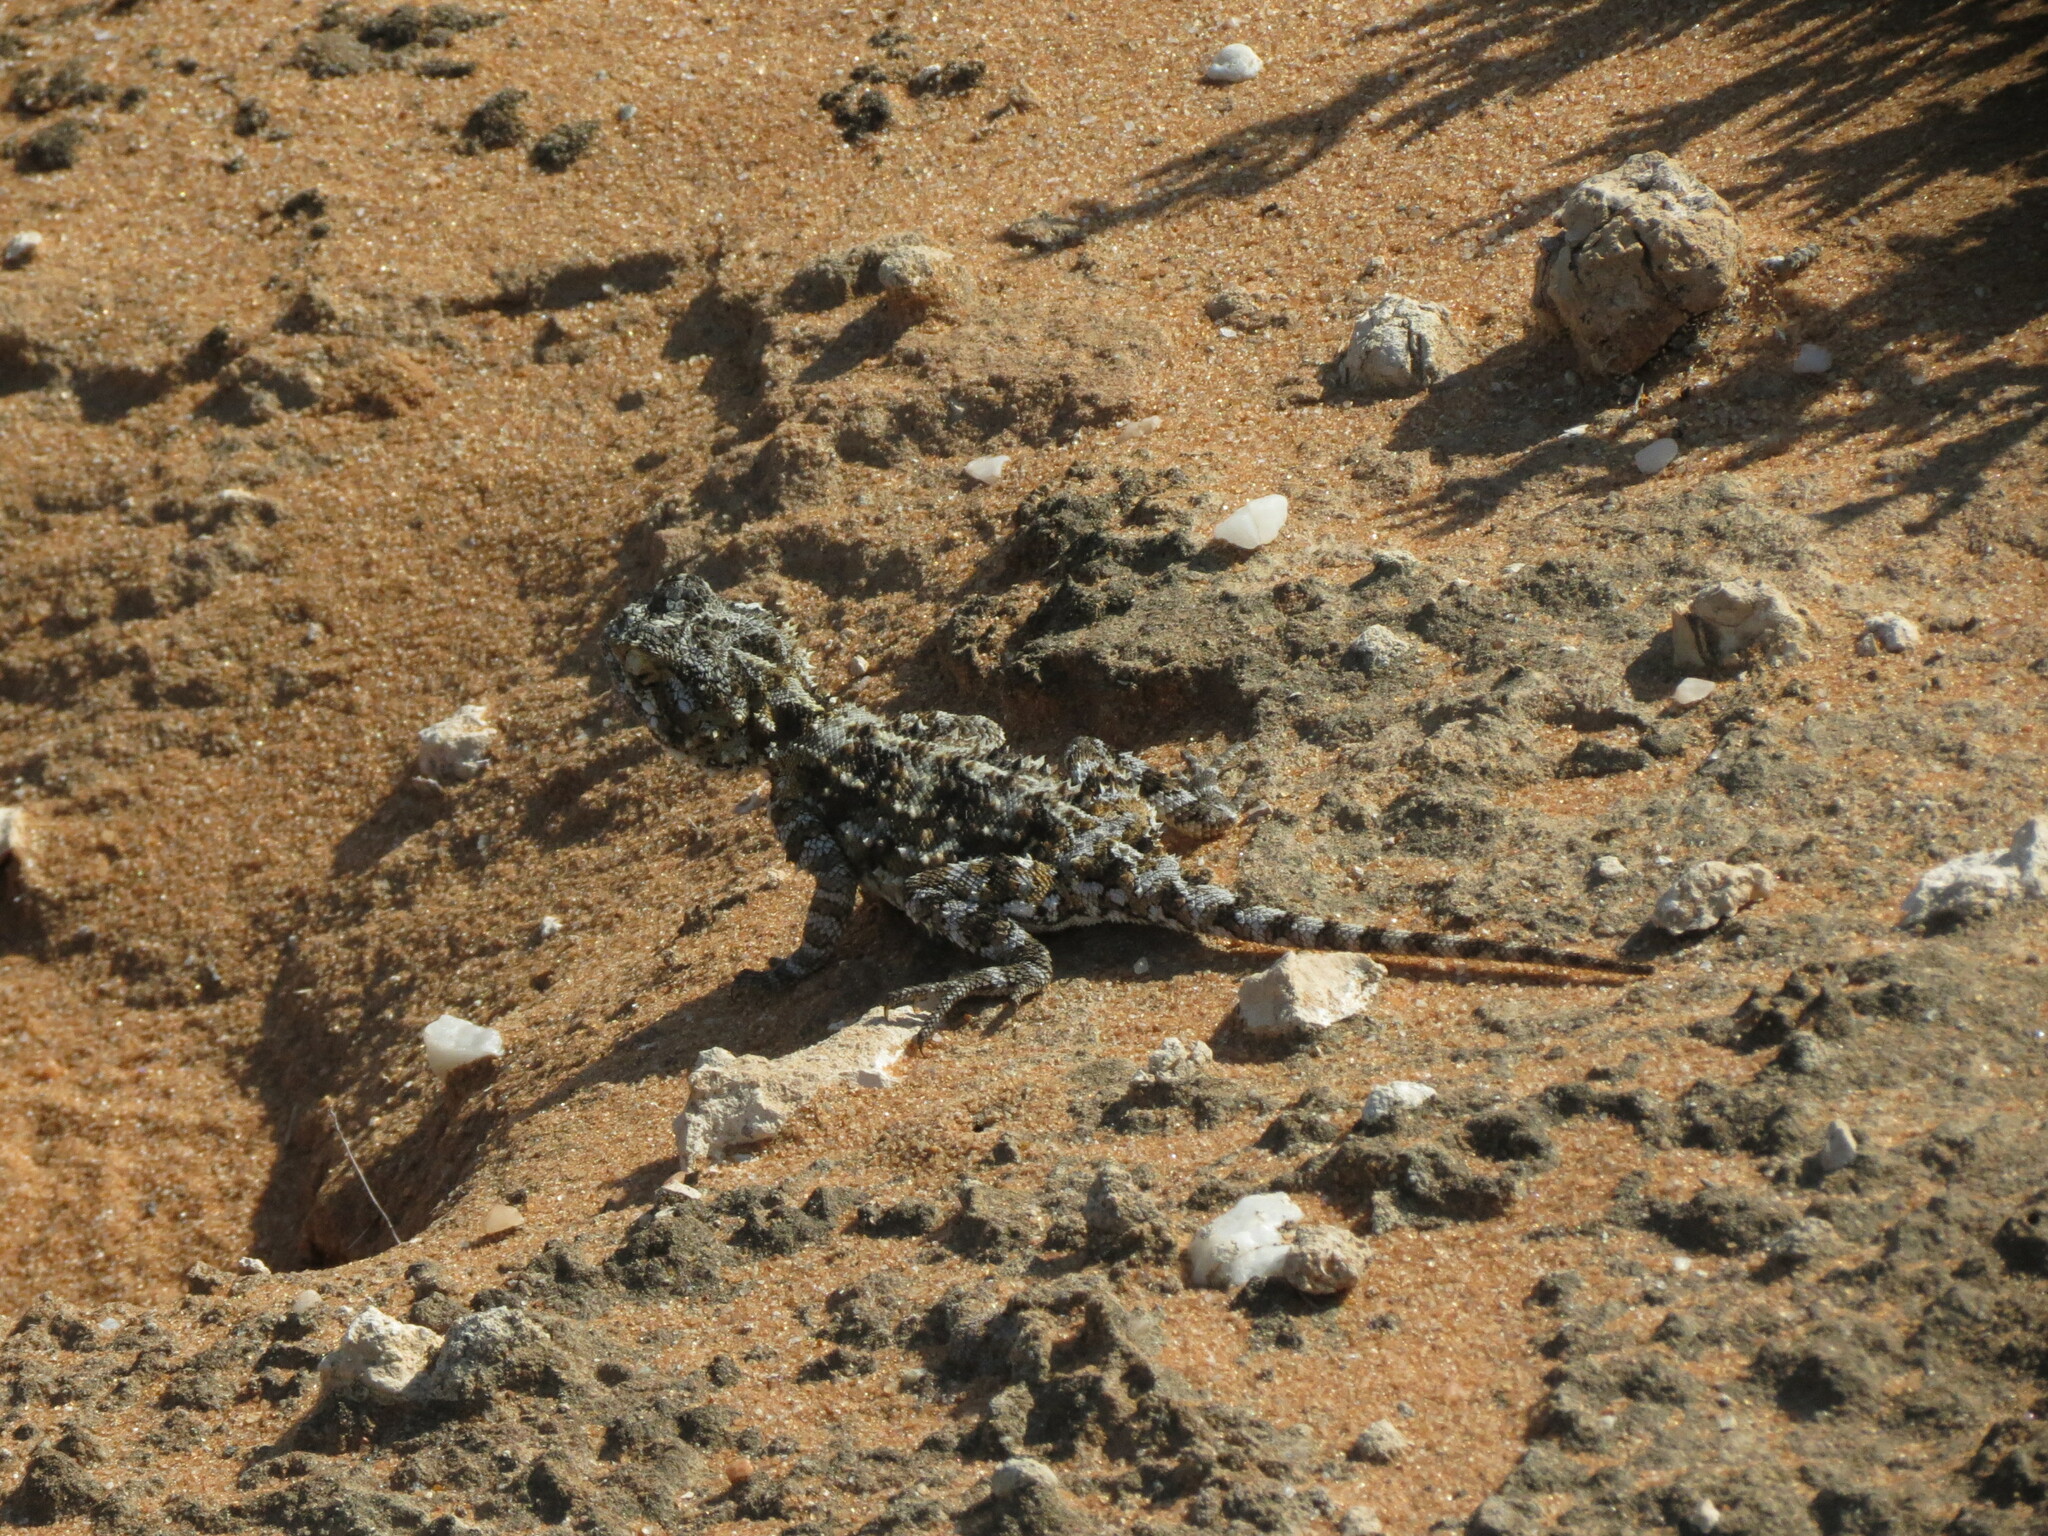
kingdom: Animalia
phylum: Chordata
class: Squamata
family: Agamidae
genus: Agama
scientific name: Agama hispida
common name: Common spiny agama
